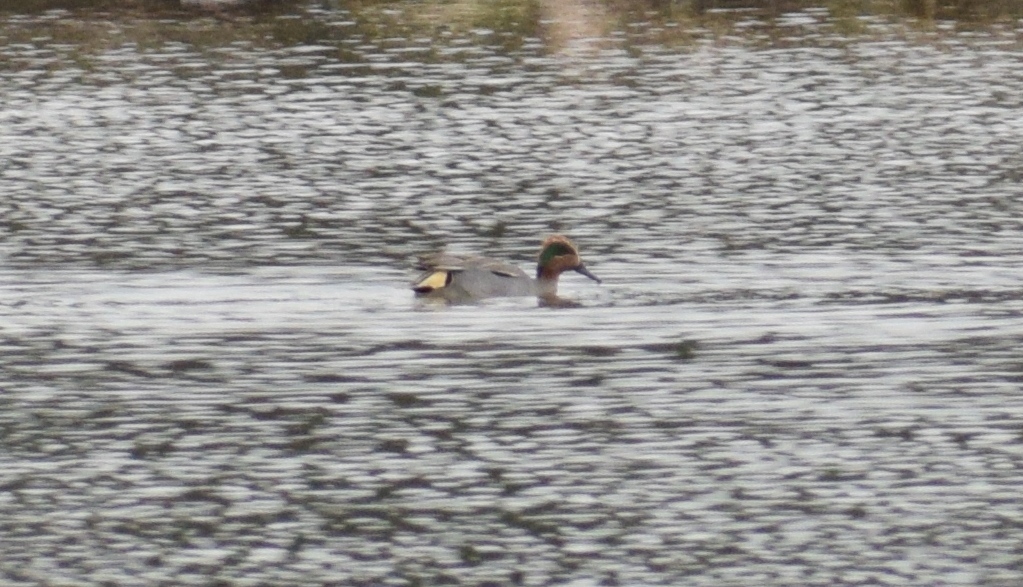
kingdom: Animalia
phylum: Chordata
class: Aves
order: Anseriformes
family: Anatidae
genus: Anas
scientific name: Anas crecca
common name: Eurasian teal
